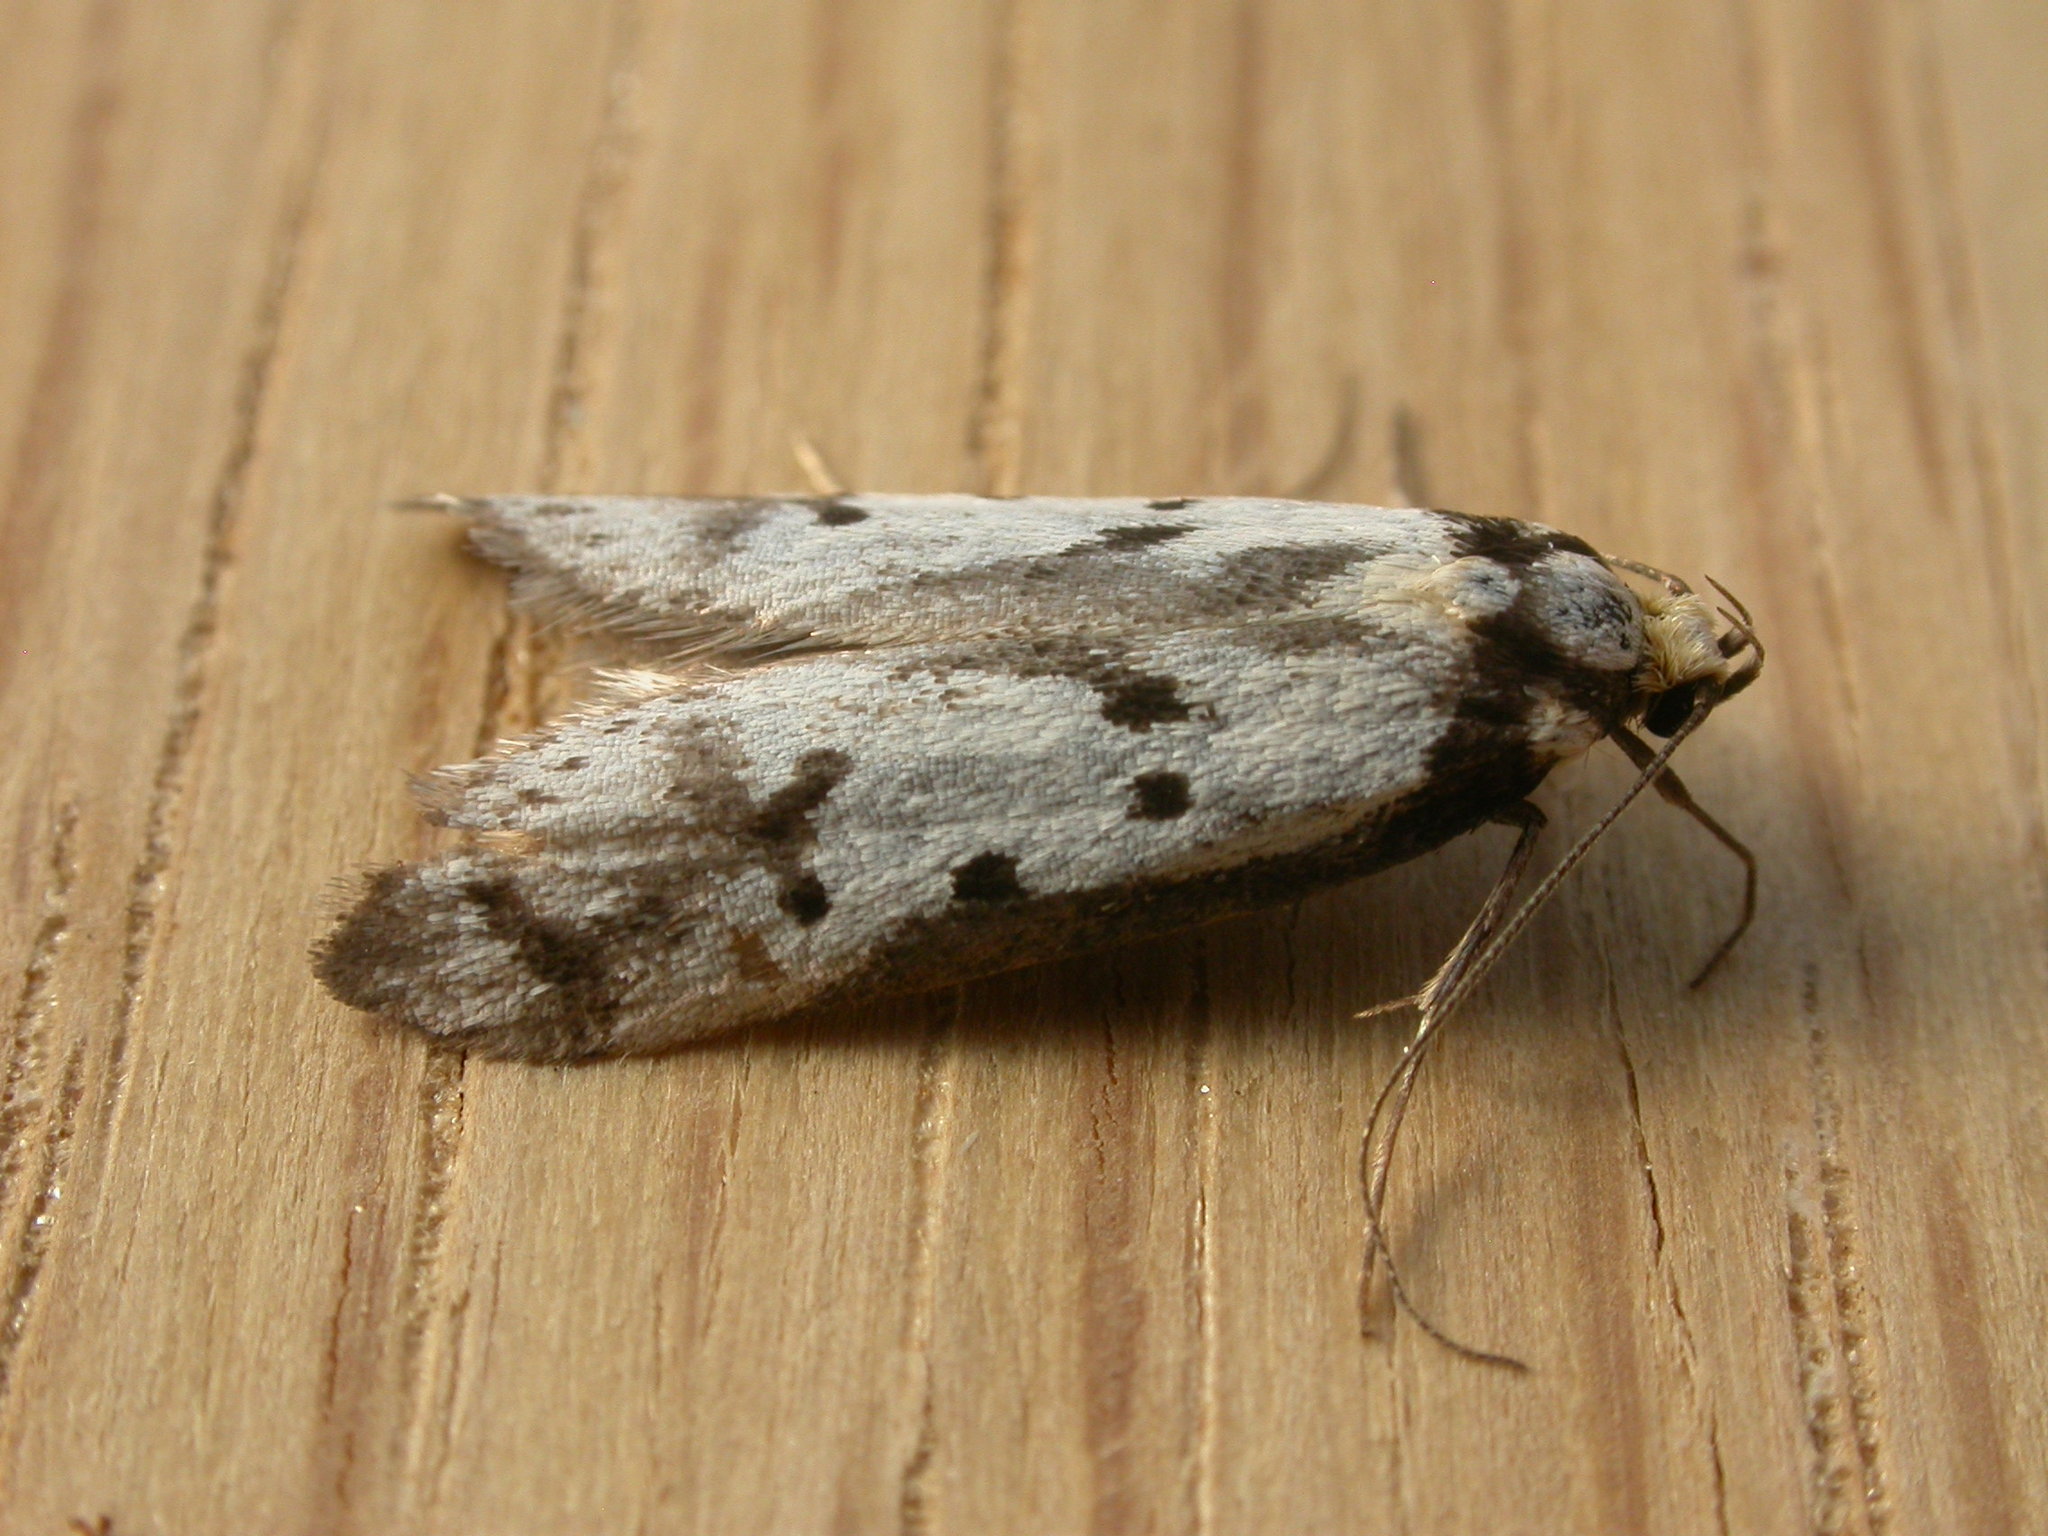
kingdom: Animalia
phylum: Arthropoda
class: Insecta
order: Lepidoptera
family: Oecophoridae
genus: Philobota
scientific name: Philobota lysizona
